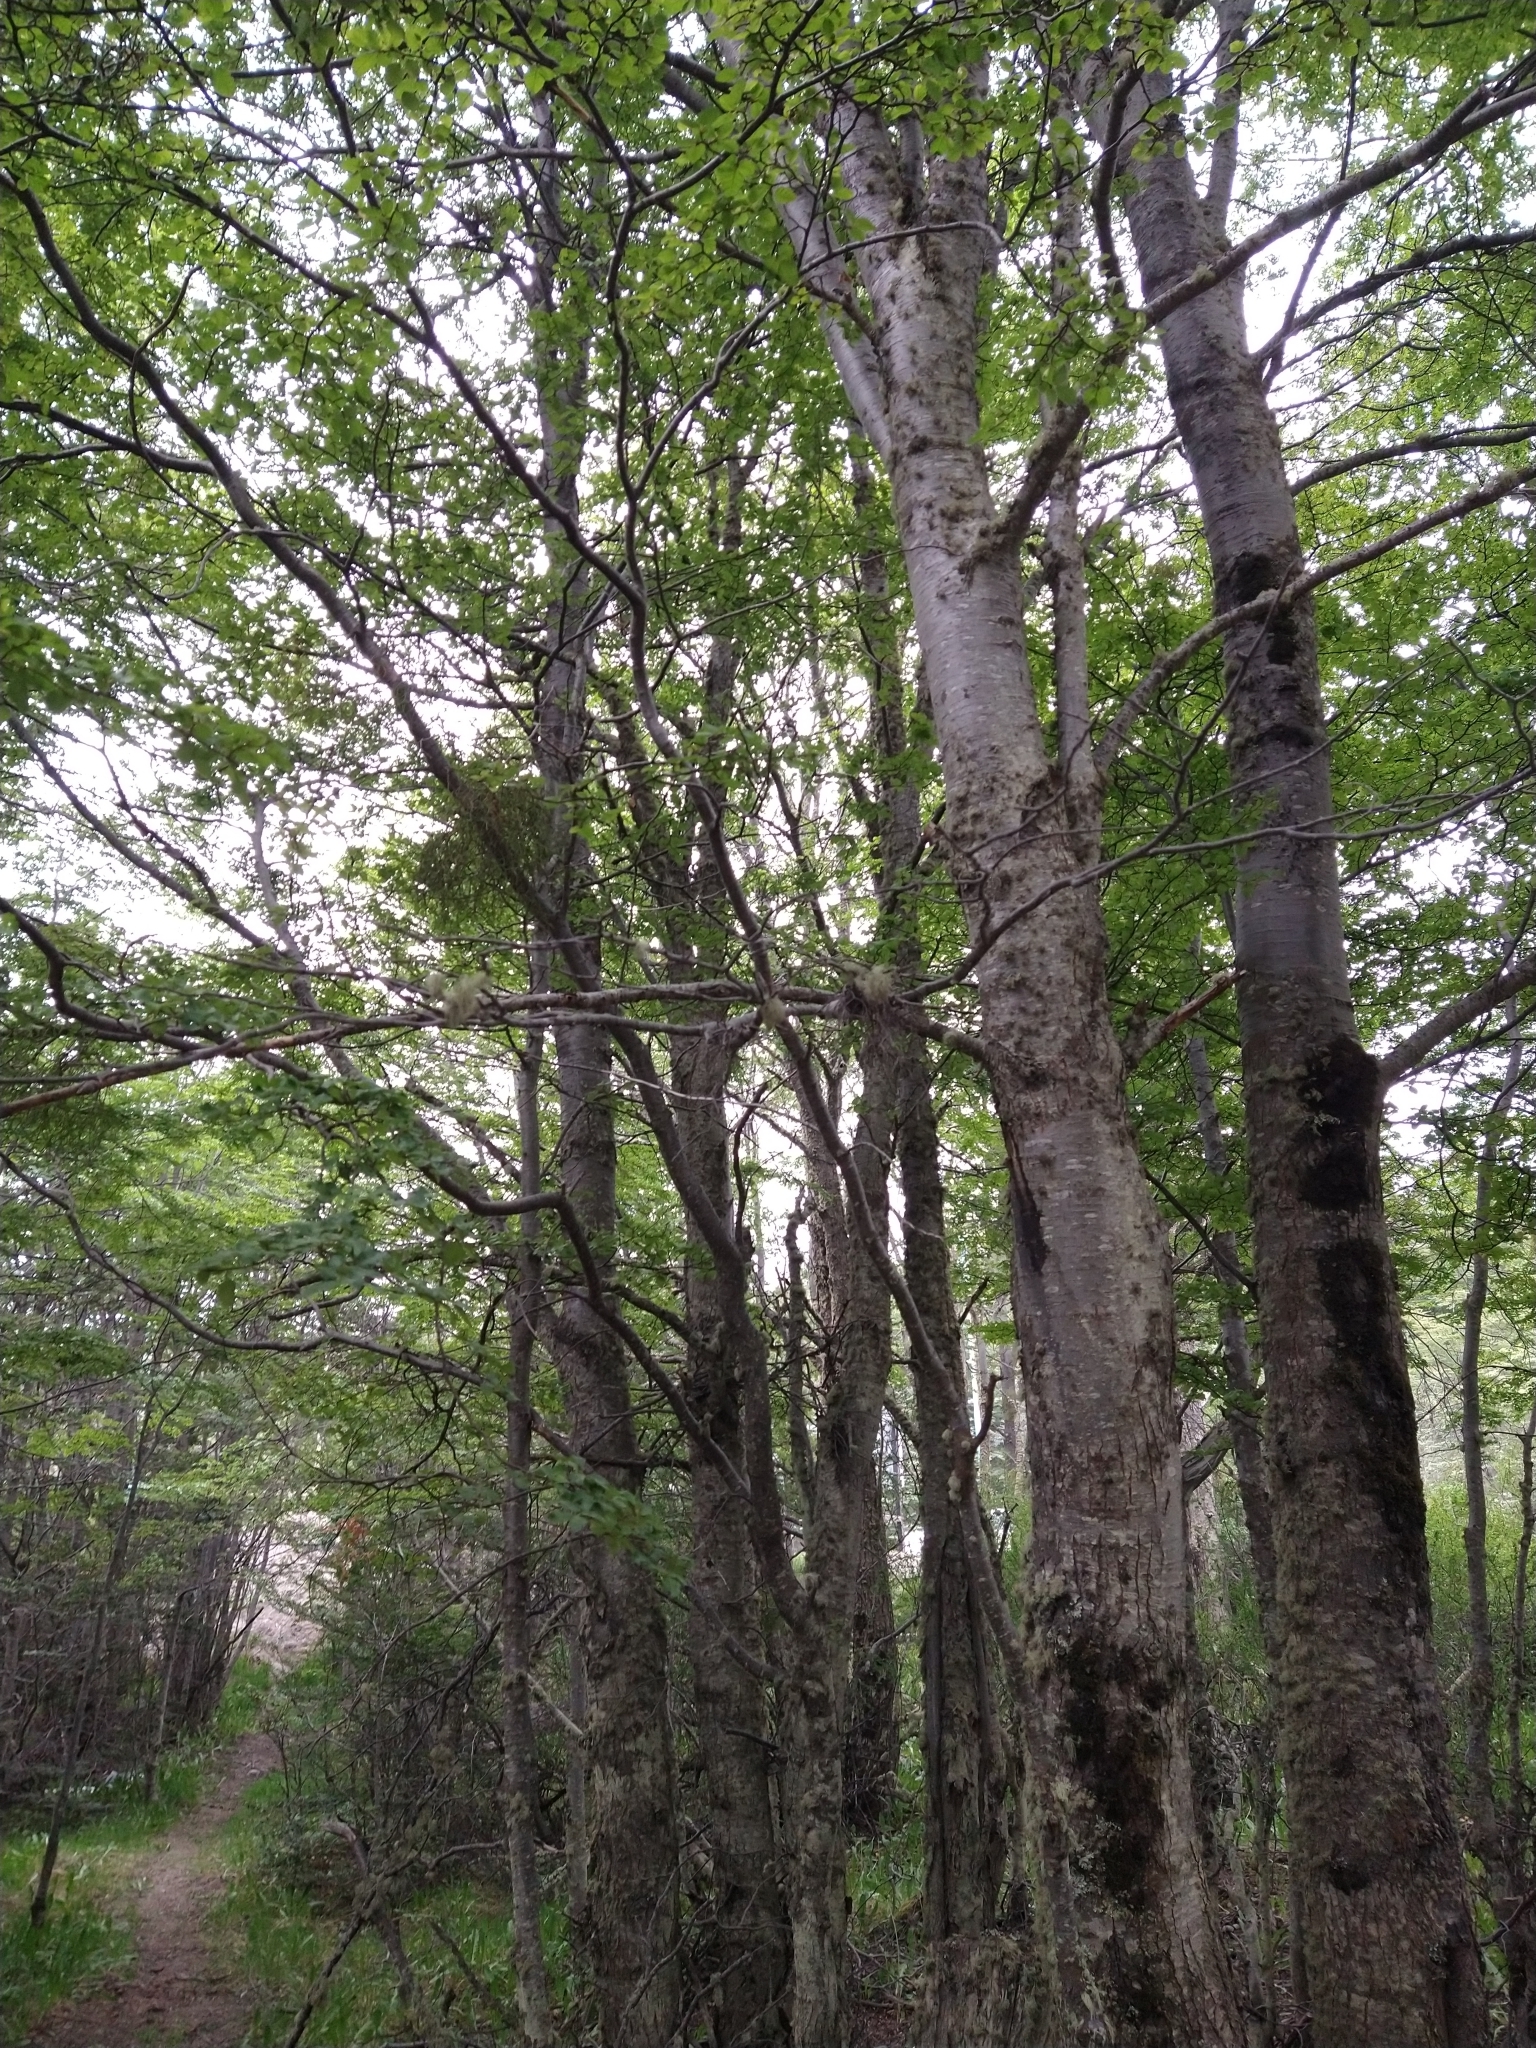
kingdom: Plantae
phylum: Tracheophyta
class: Magnoliopsida
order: Fagales
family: Nothofagaceae
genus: Nothofagus
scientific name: Nothofagus pumilio
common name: Lenga beech
